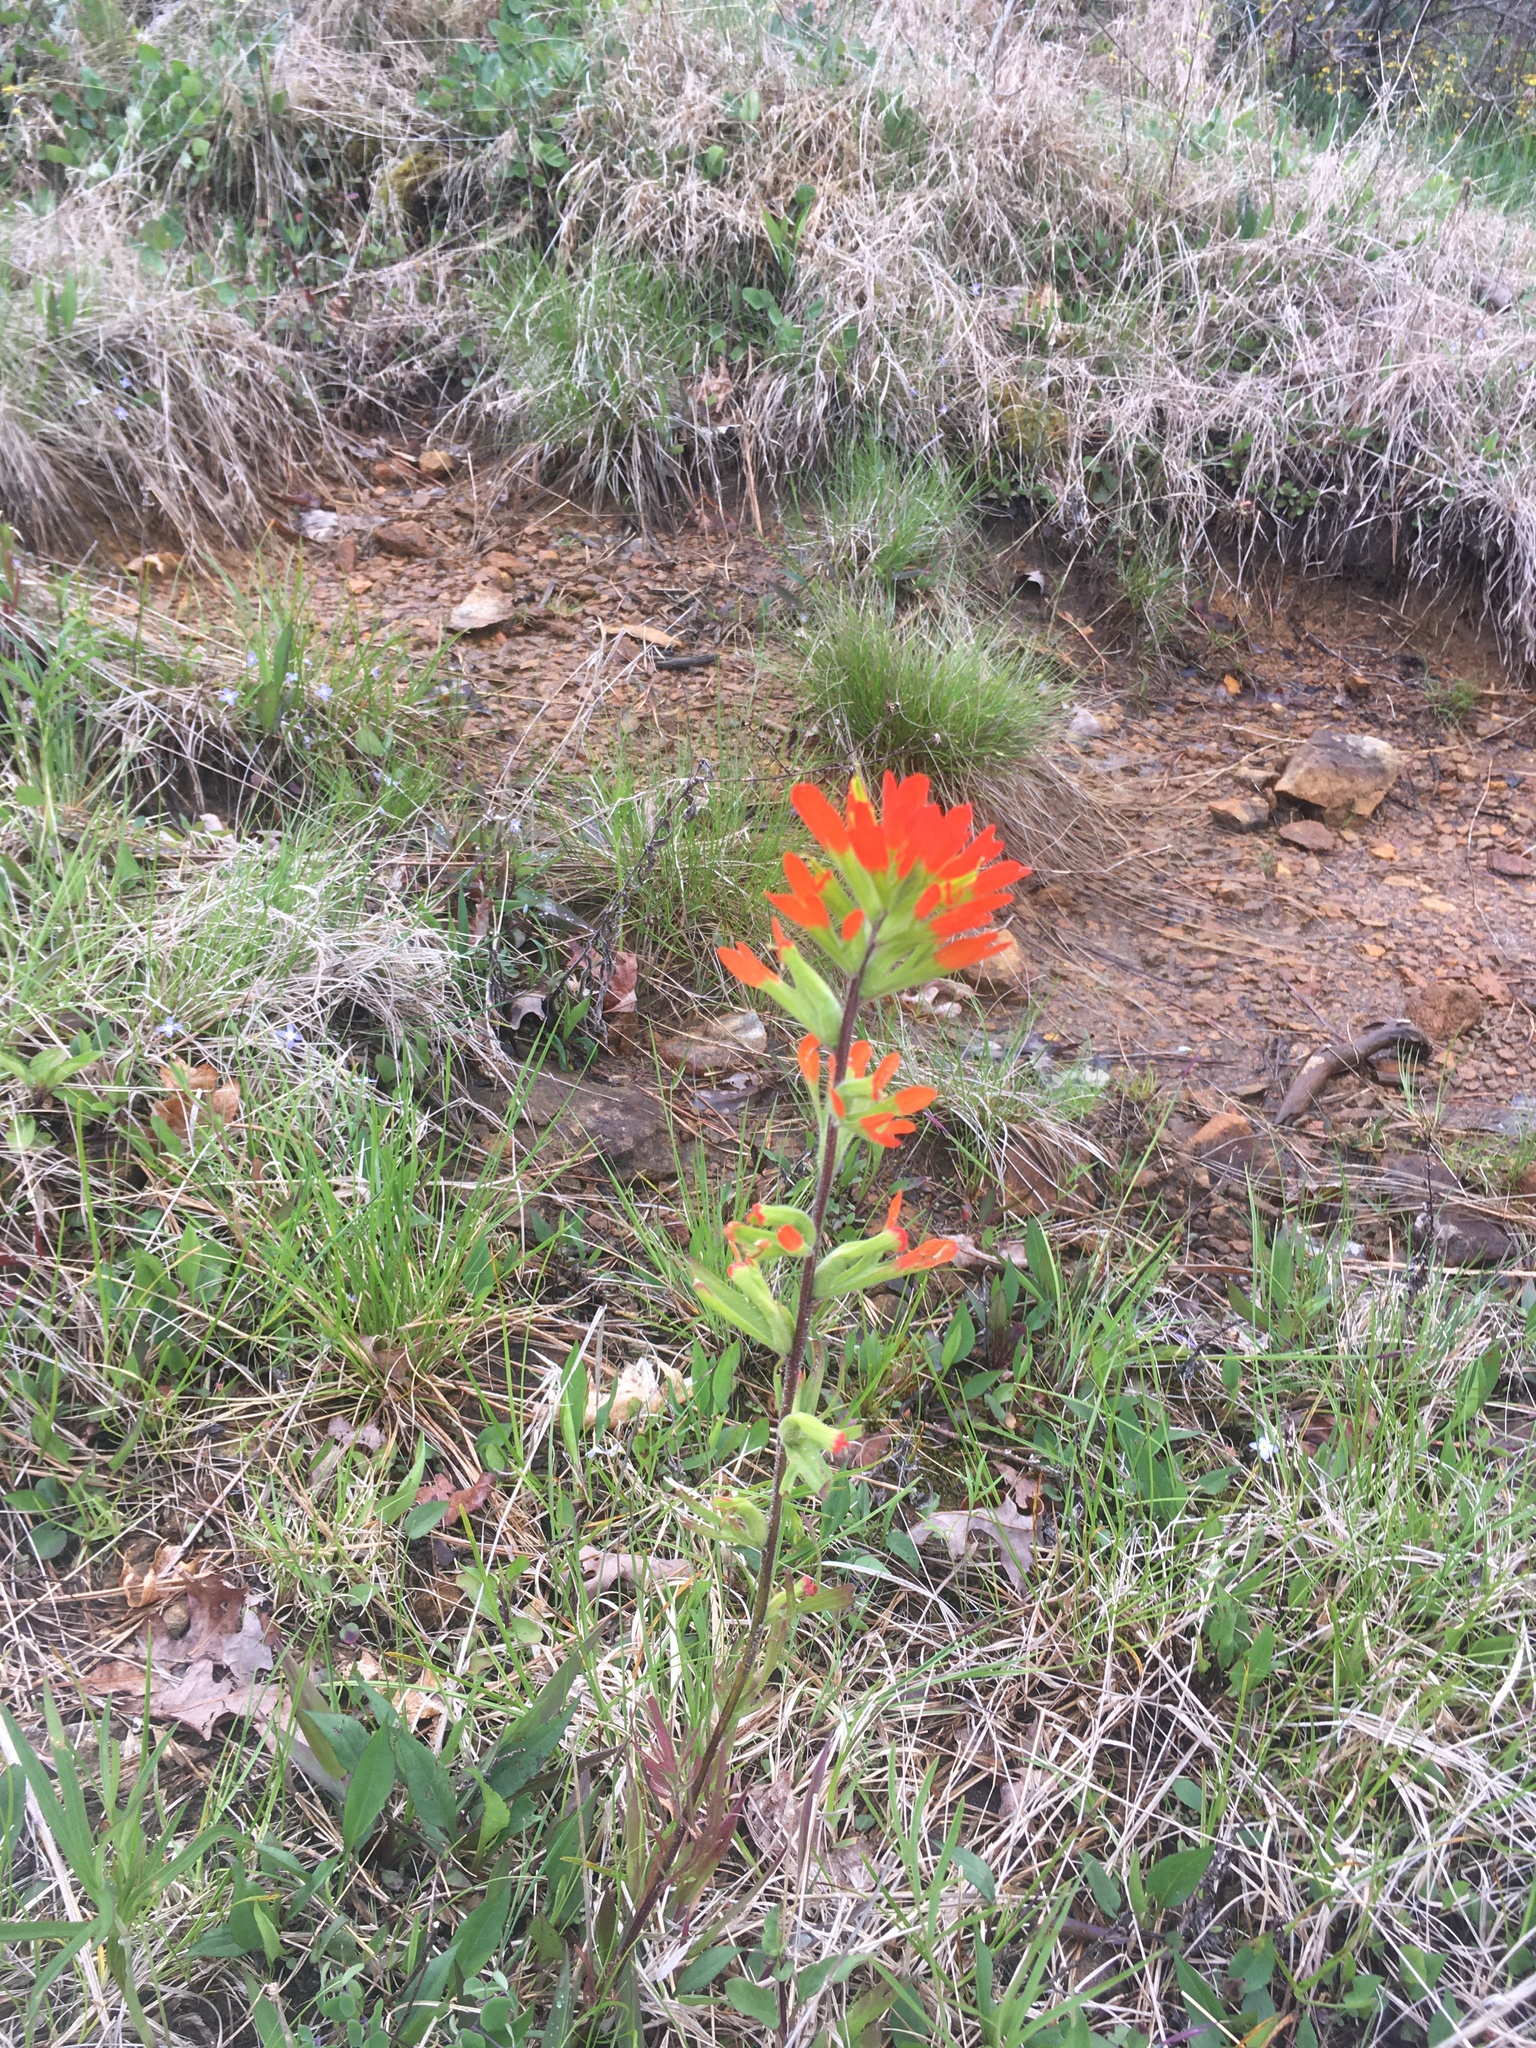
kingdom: Plantae
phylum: Tracheophyta
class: Magnoliopsida
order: Lamiales
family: Orobanchaceae
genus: Castilleja
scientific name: Castilleja coccinea
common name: Scarlet paintbrush
